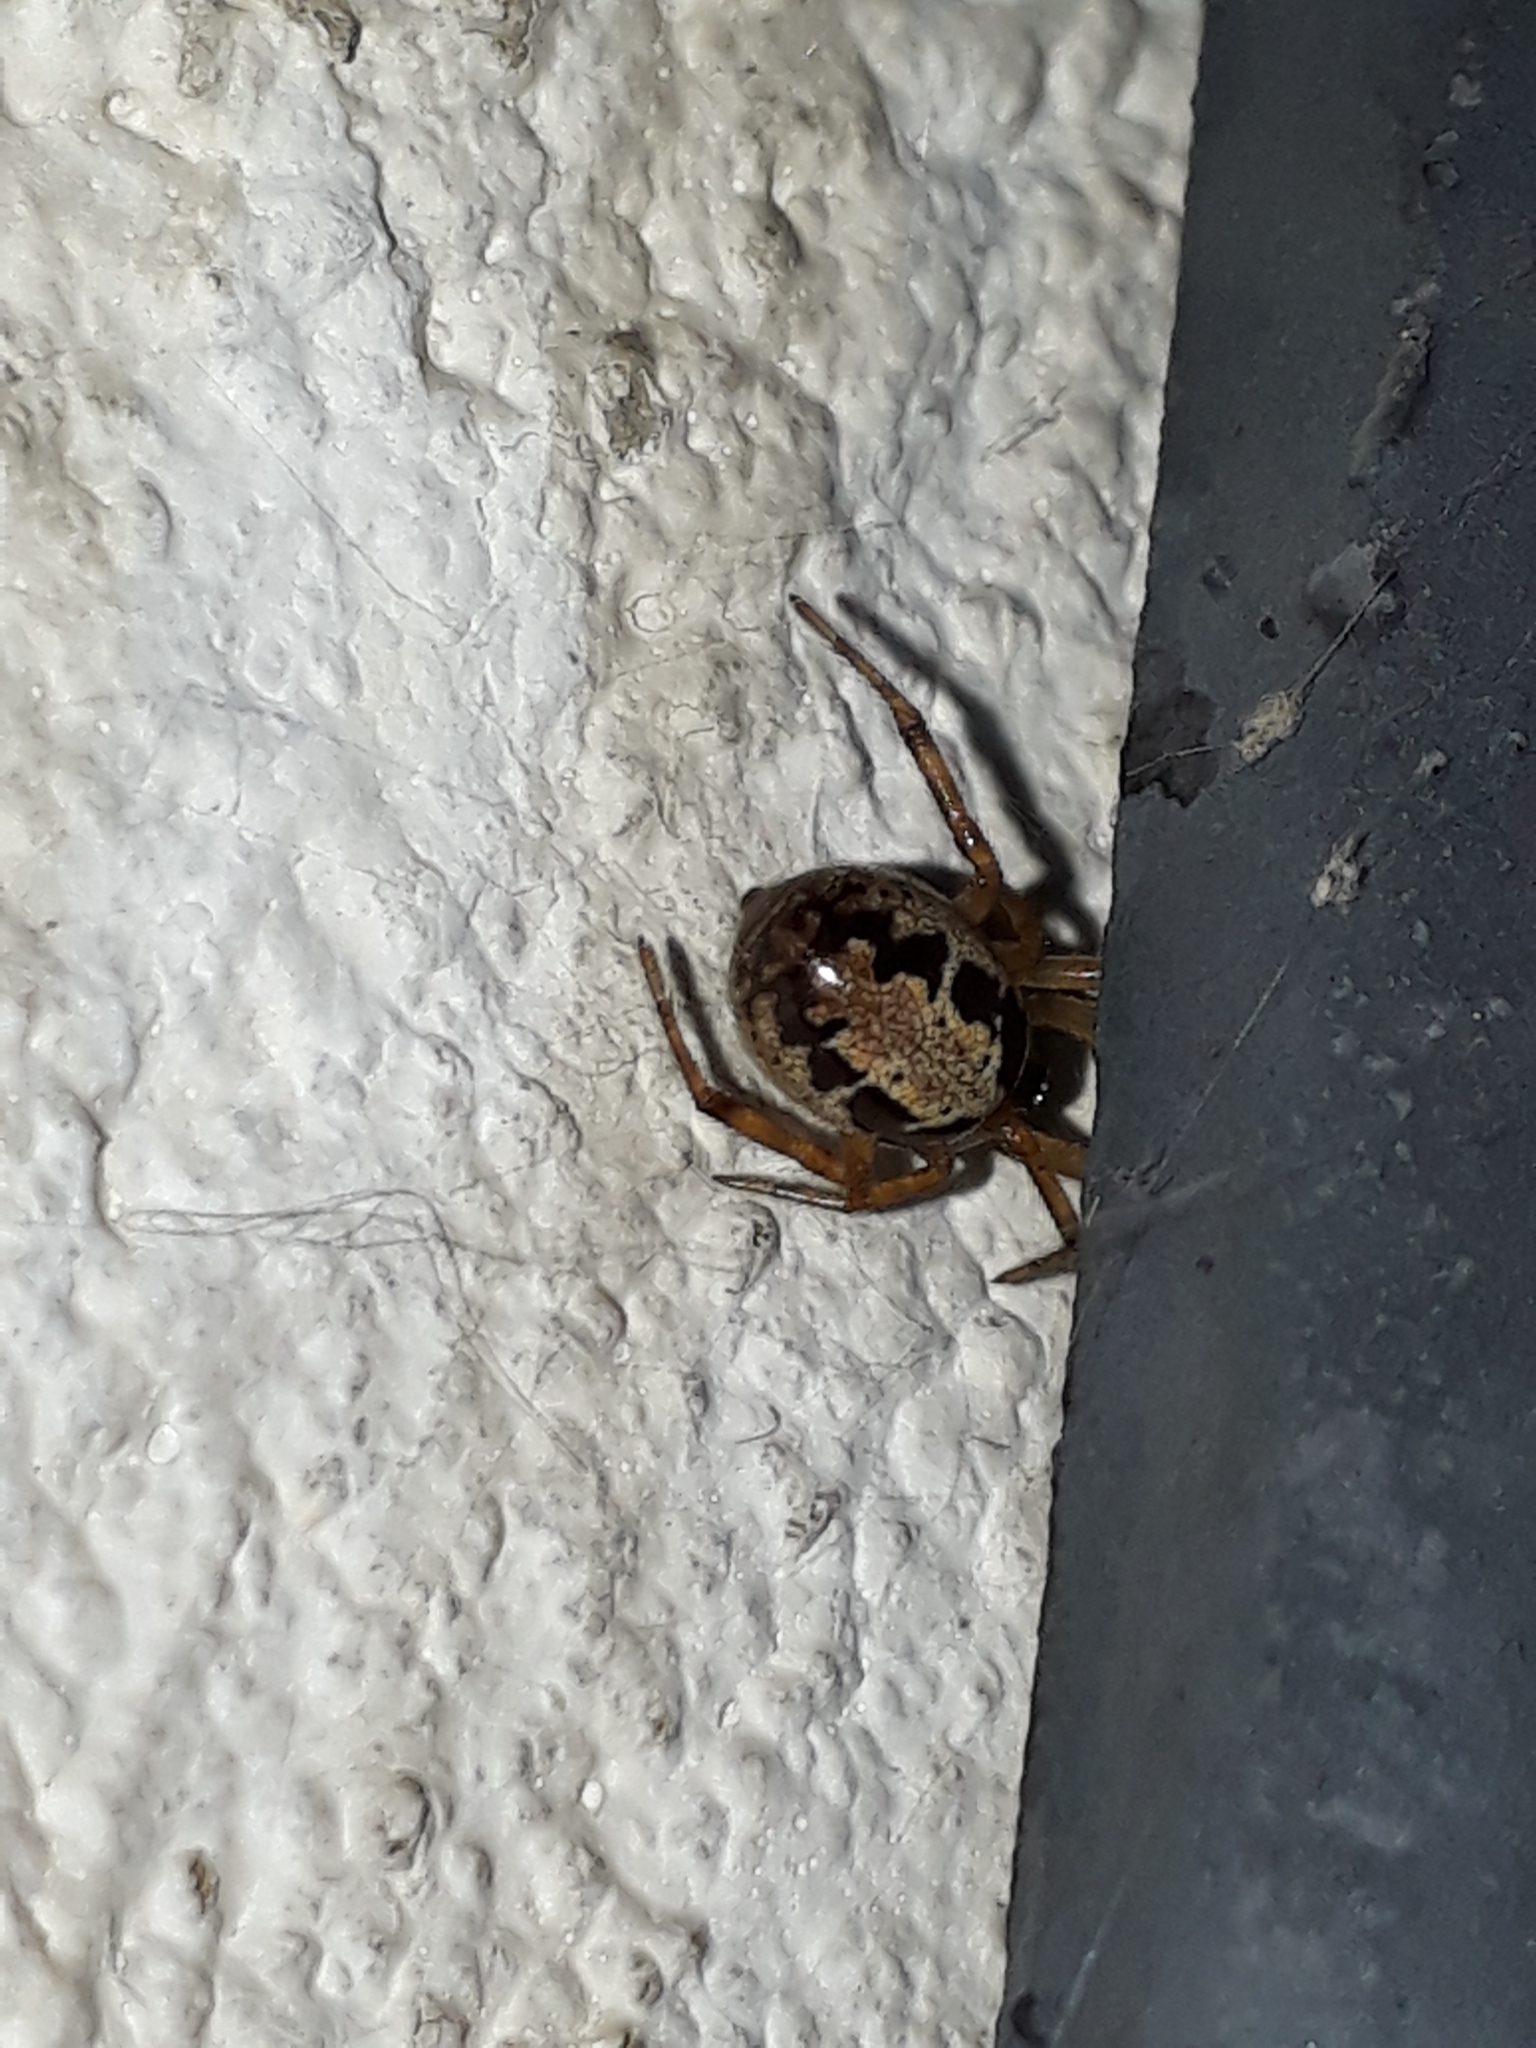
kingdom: Animalia
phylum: Arthropoda
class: Arachnida
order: Araneae
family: Theridiidae
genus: Steatoda
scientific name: Steatoda nobilis
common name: Cobweb weaver
